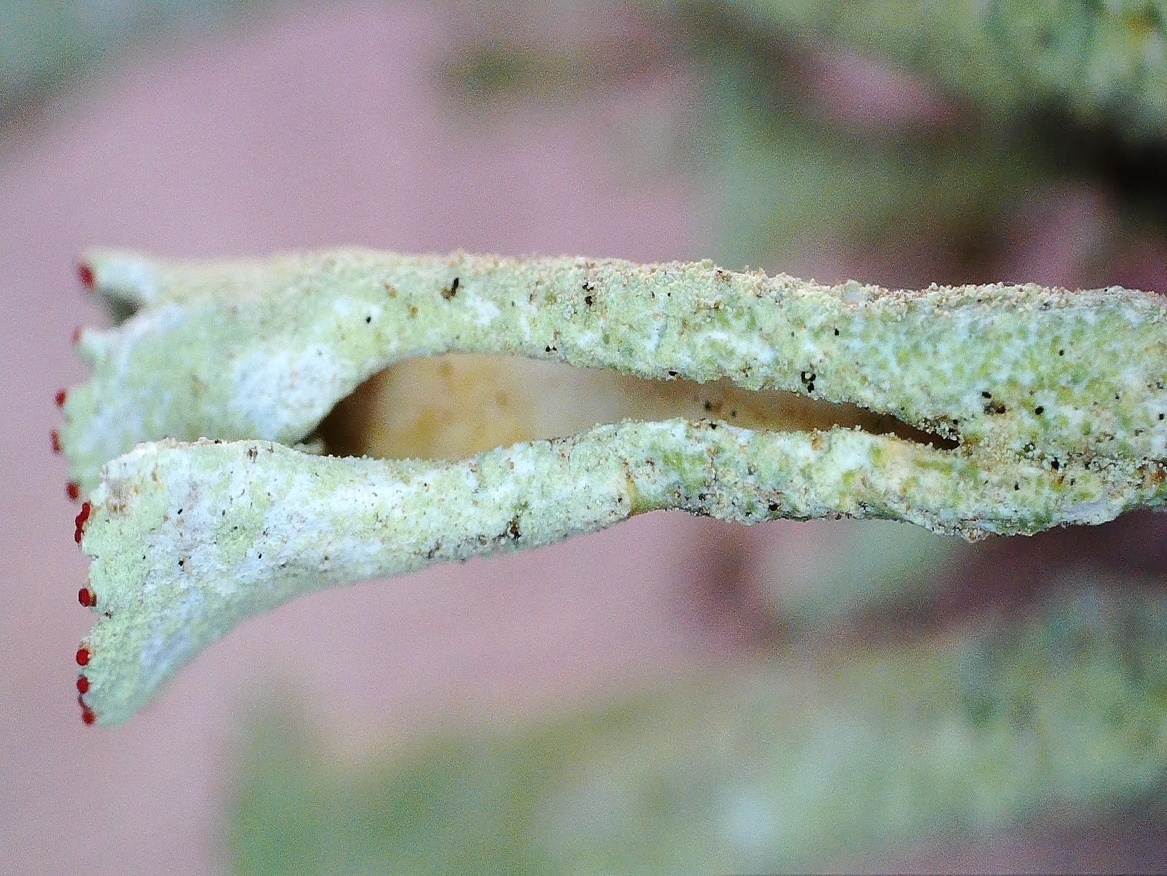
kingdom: Fungi
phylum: Ascomycota
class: Lecanoromycetes
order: Lecanorales
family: Cladoniaceae
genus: Cladonia
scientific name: Cladonia deformis
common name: Lesser sulphur-cup lichen
